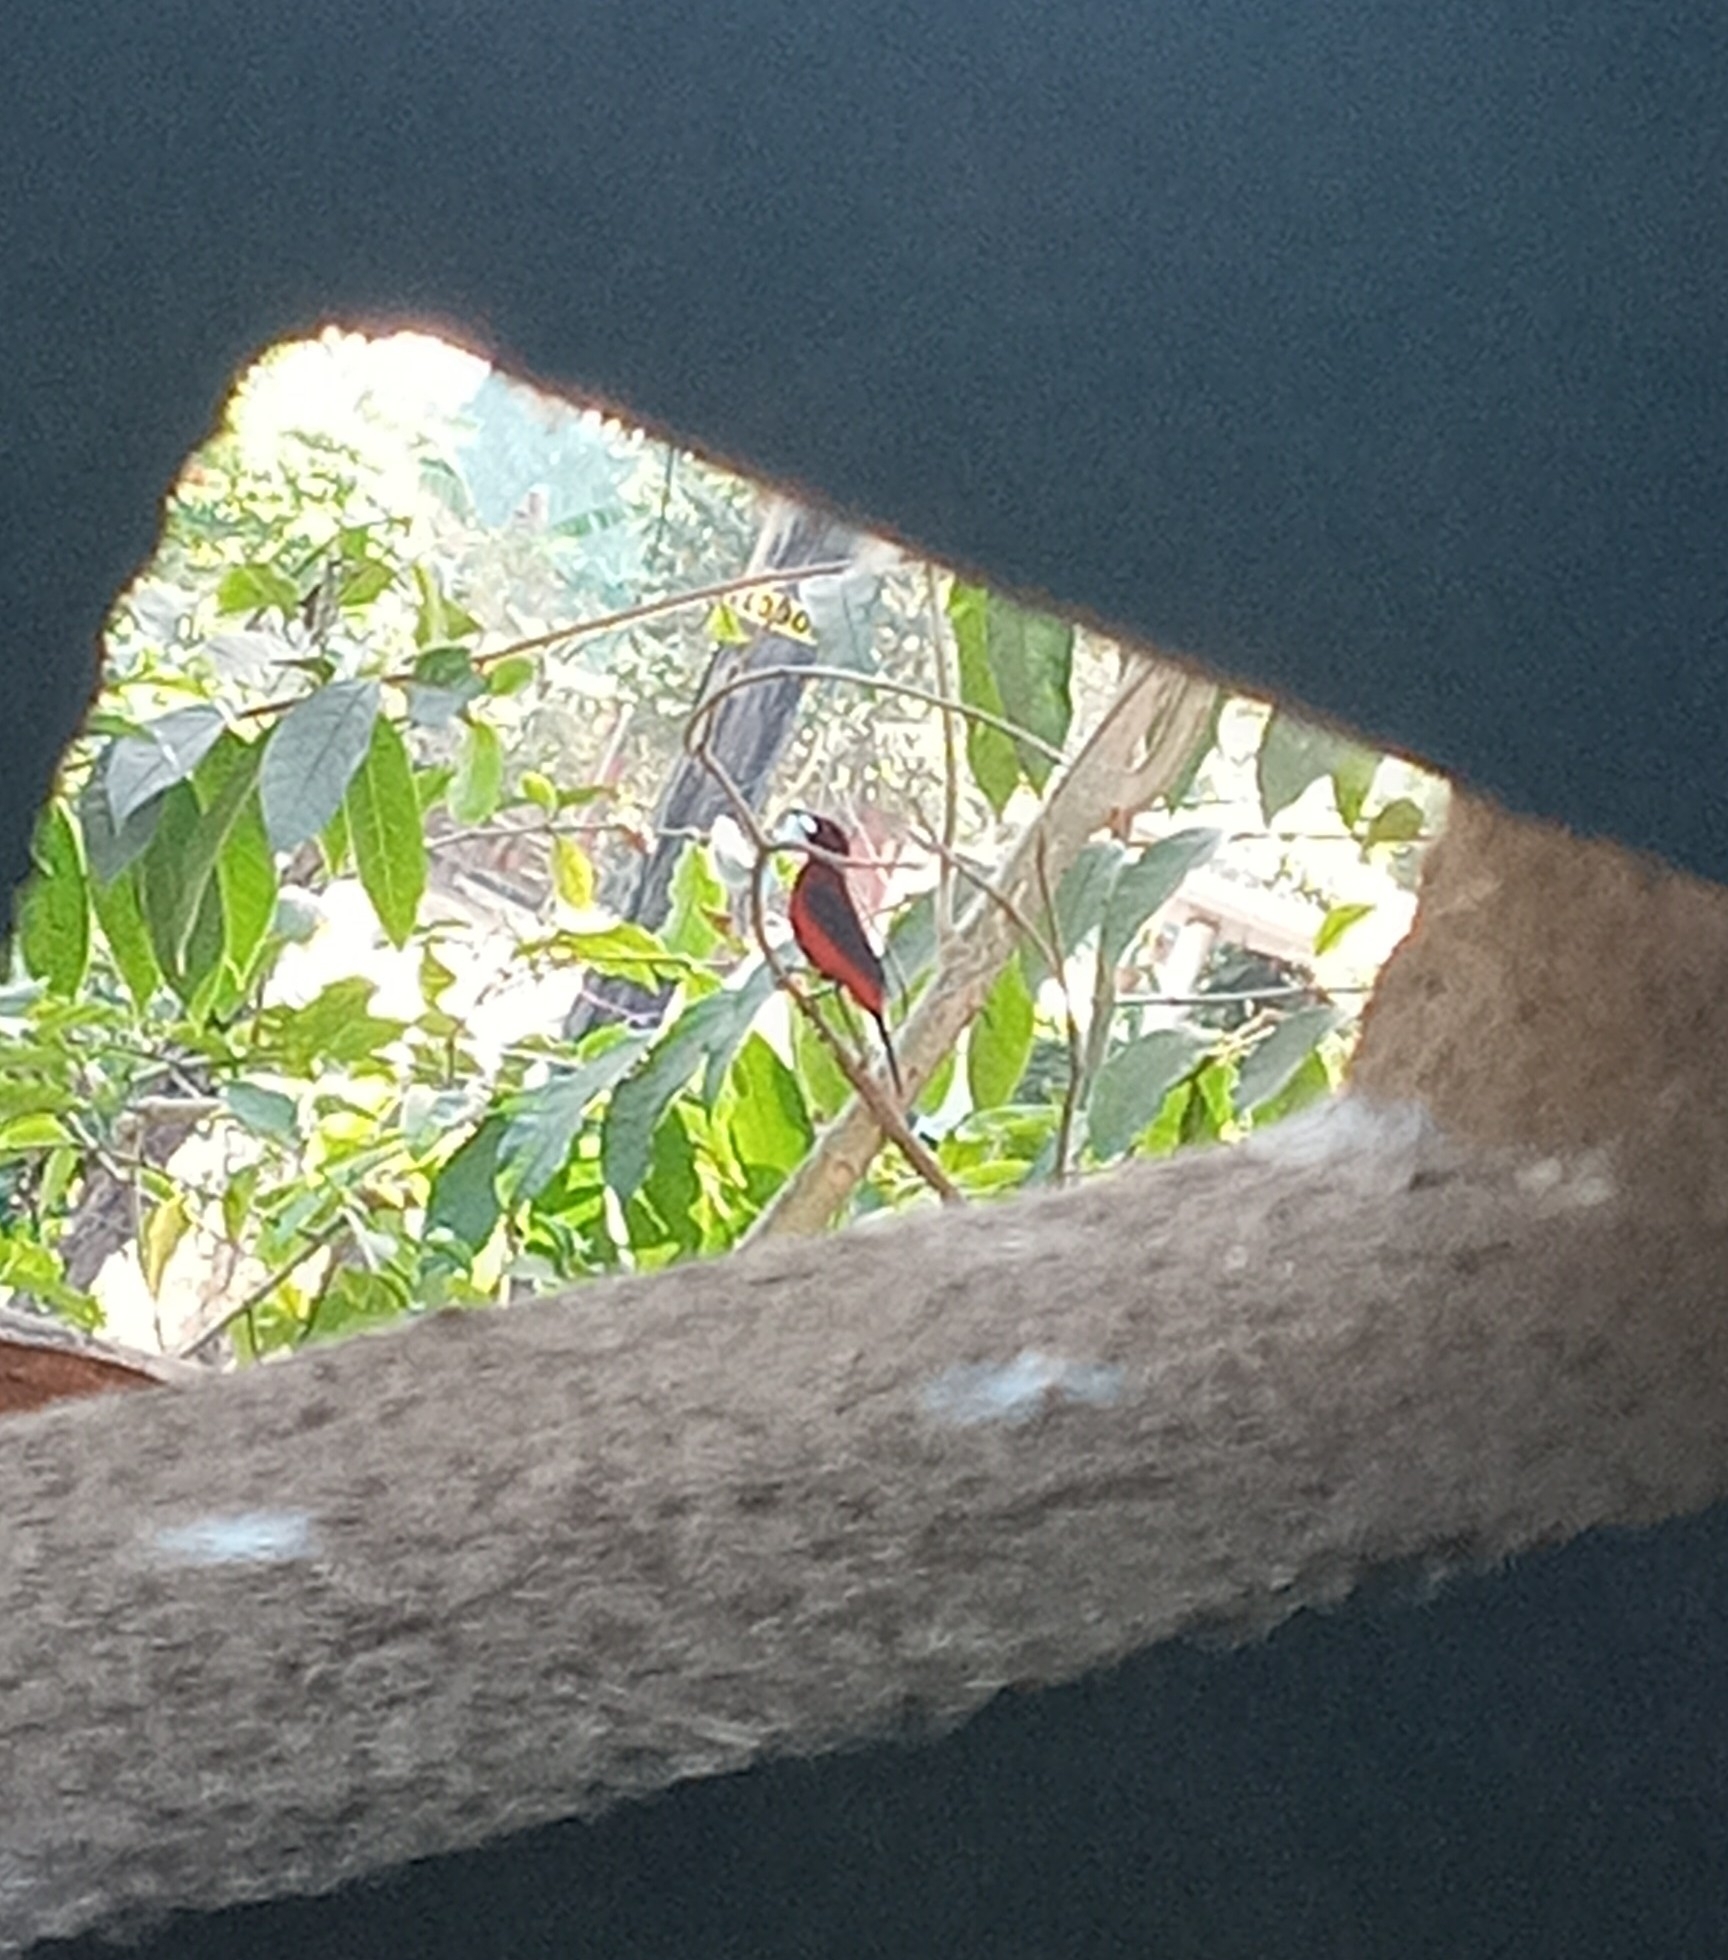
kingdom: Animalia
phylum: Chordata
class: Aves
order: Passeriformes
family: Thraupidae
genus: Ramphocelus
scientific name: Ramphocelus dimidiatus
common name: Crimson-backed tanager
